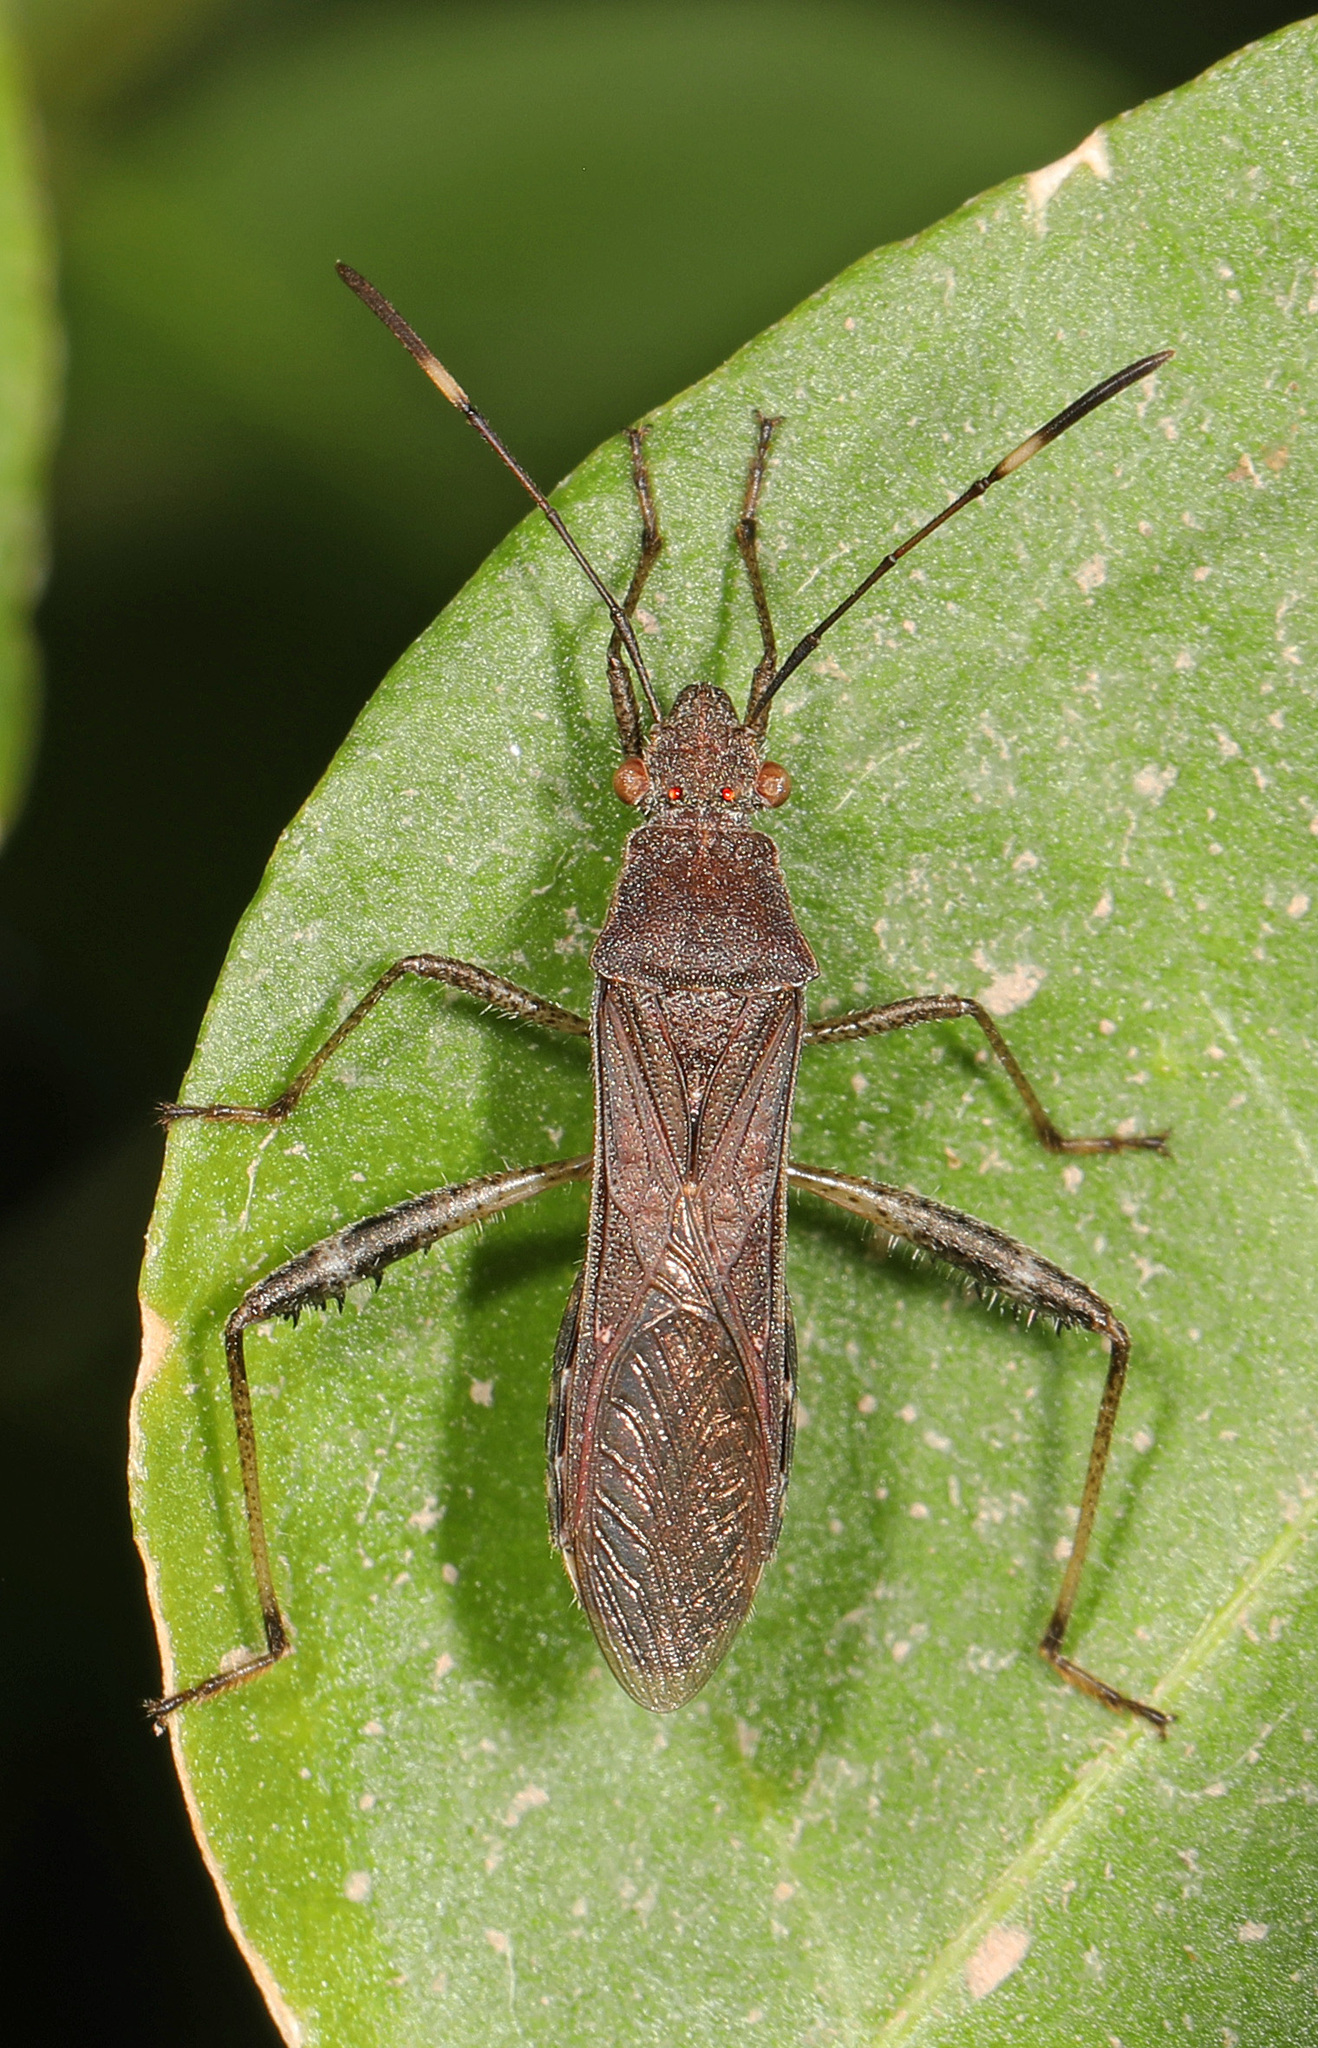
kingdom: Animalia
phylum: Arthropoda
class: Insecta
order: Hemiptera
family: Alydidae
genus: Burtinus
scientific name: Burtinus notatipennis
